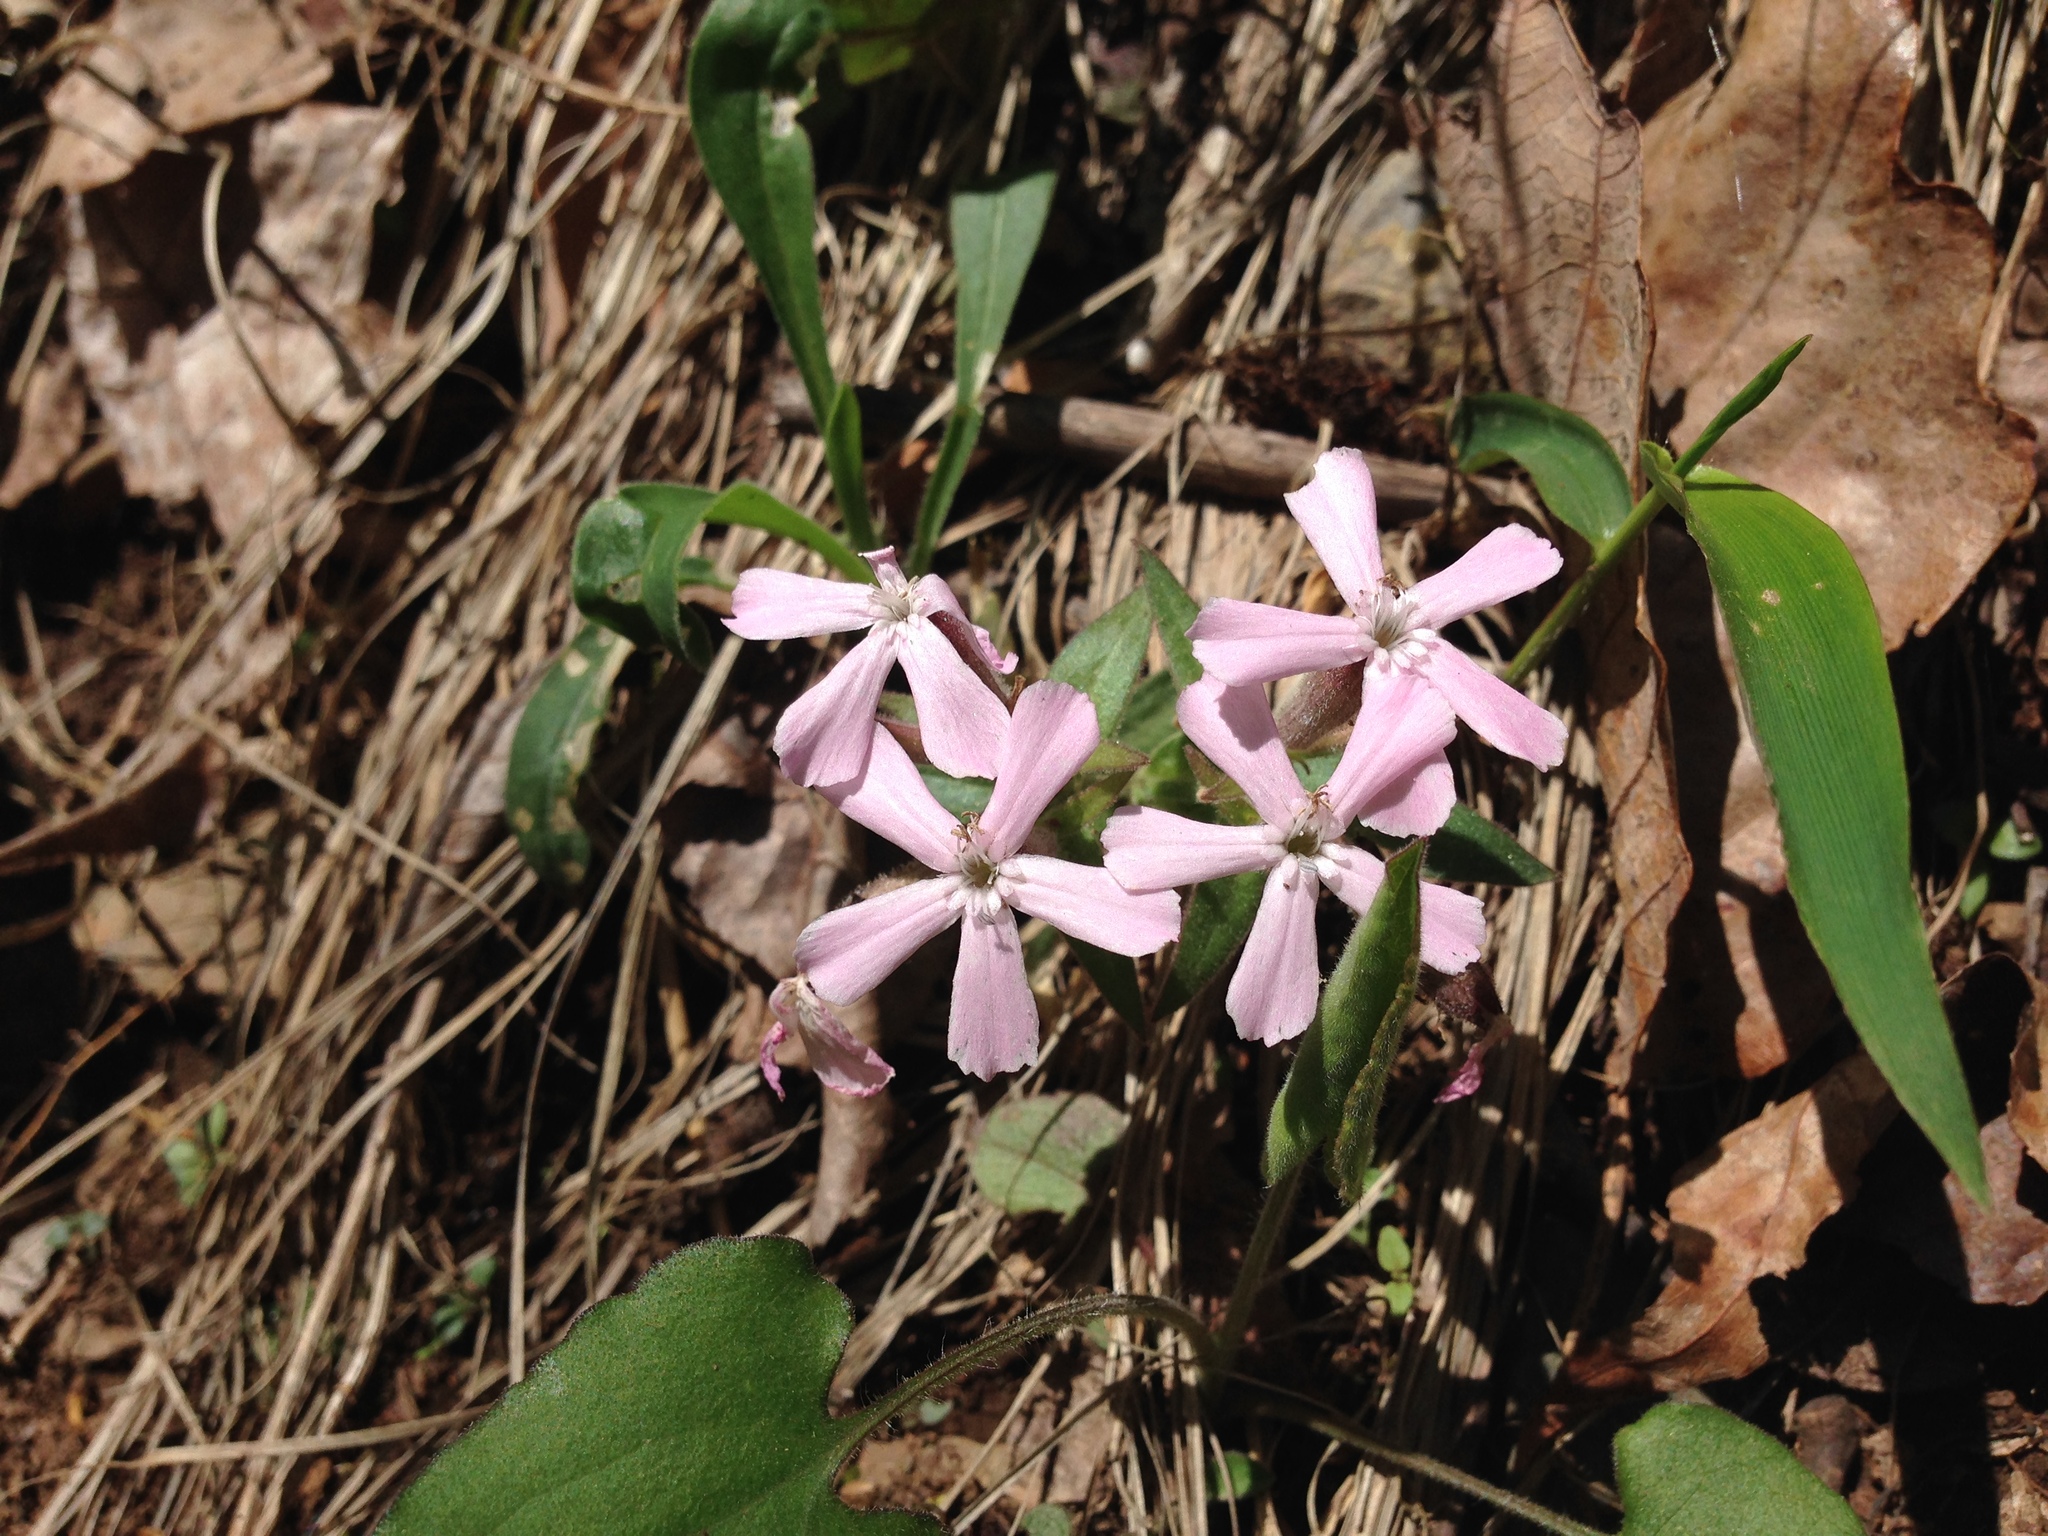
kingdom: Plantae
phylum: Tracheophyta
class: Magnoliopsida
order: Caryophyllales
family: Caryophyllaceae
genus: Silene
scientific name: Silene caroliniana
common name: Sticky catchfly
